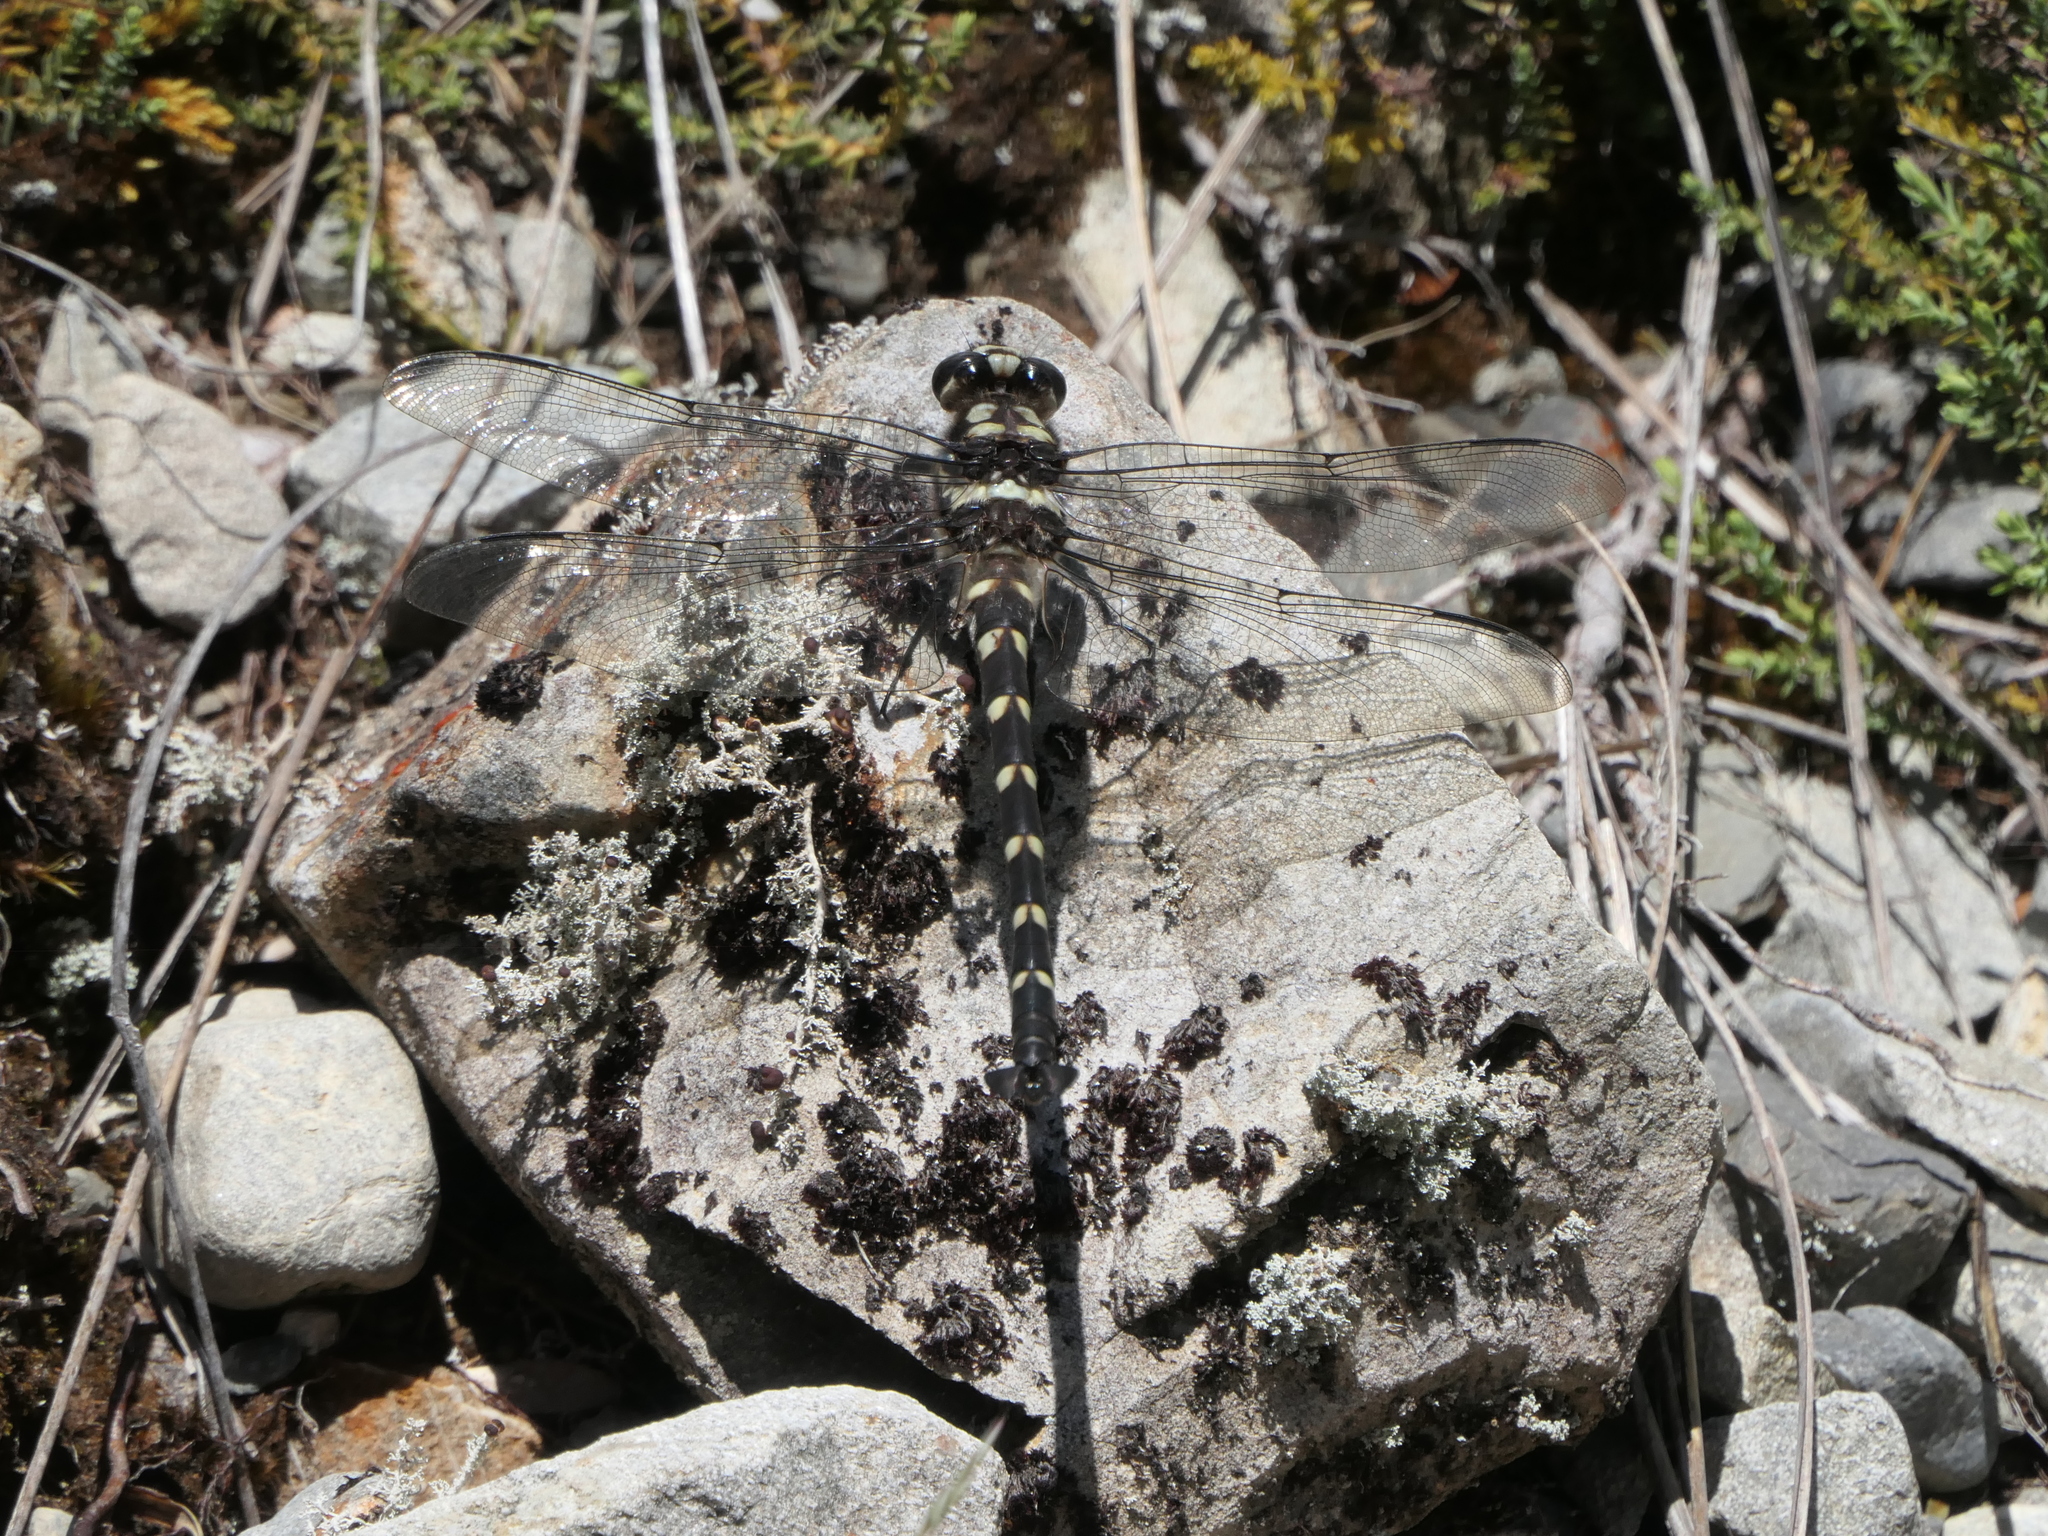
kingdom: Animalia
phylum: Arthropoda
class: Insecta
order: Odonata
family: Petaluridae
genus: Uropetala
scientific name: Uropetala chiltoni
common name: Mountain giant dragonfly
